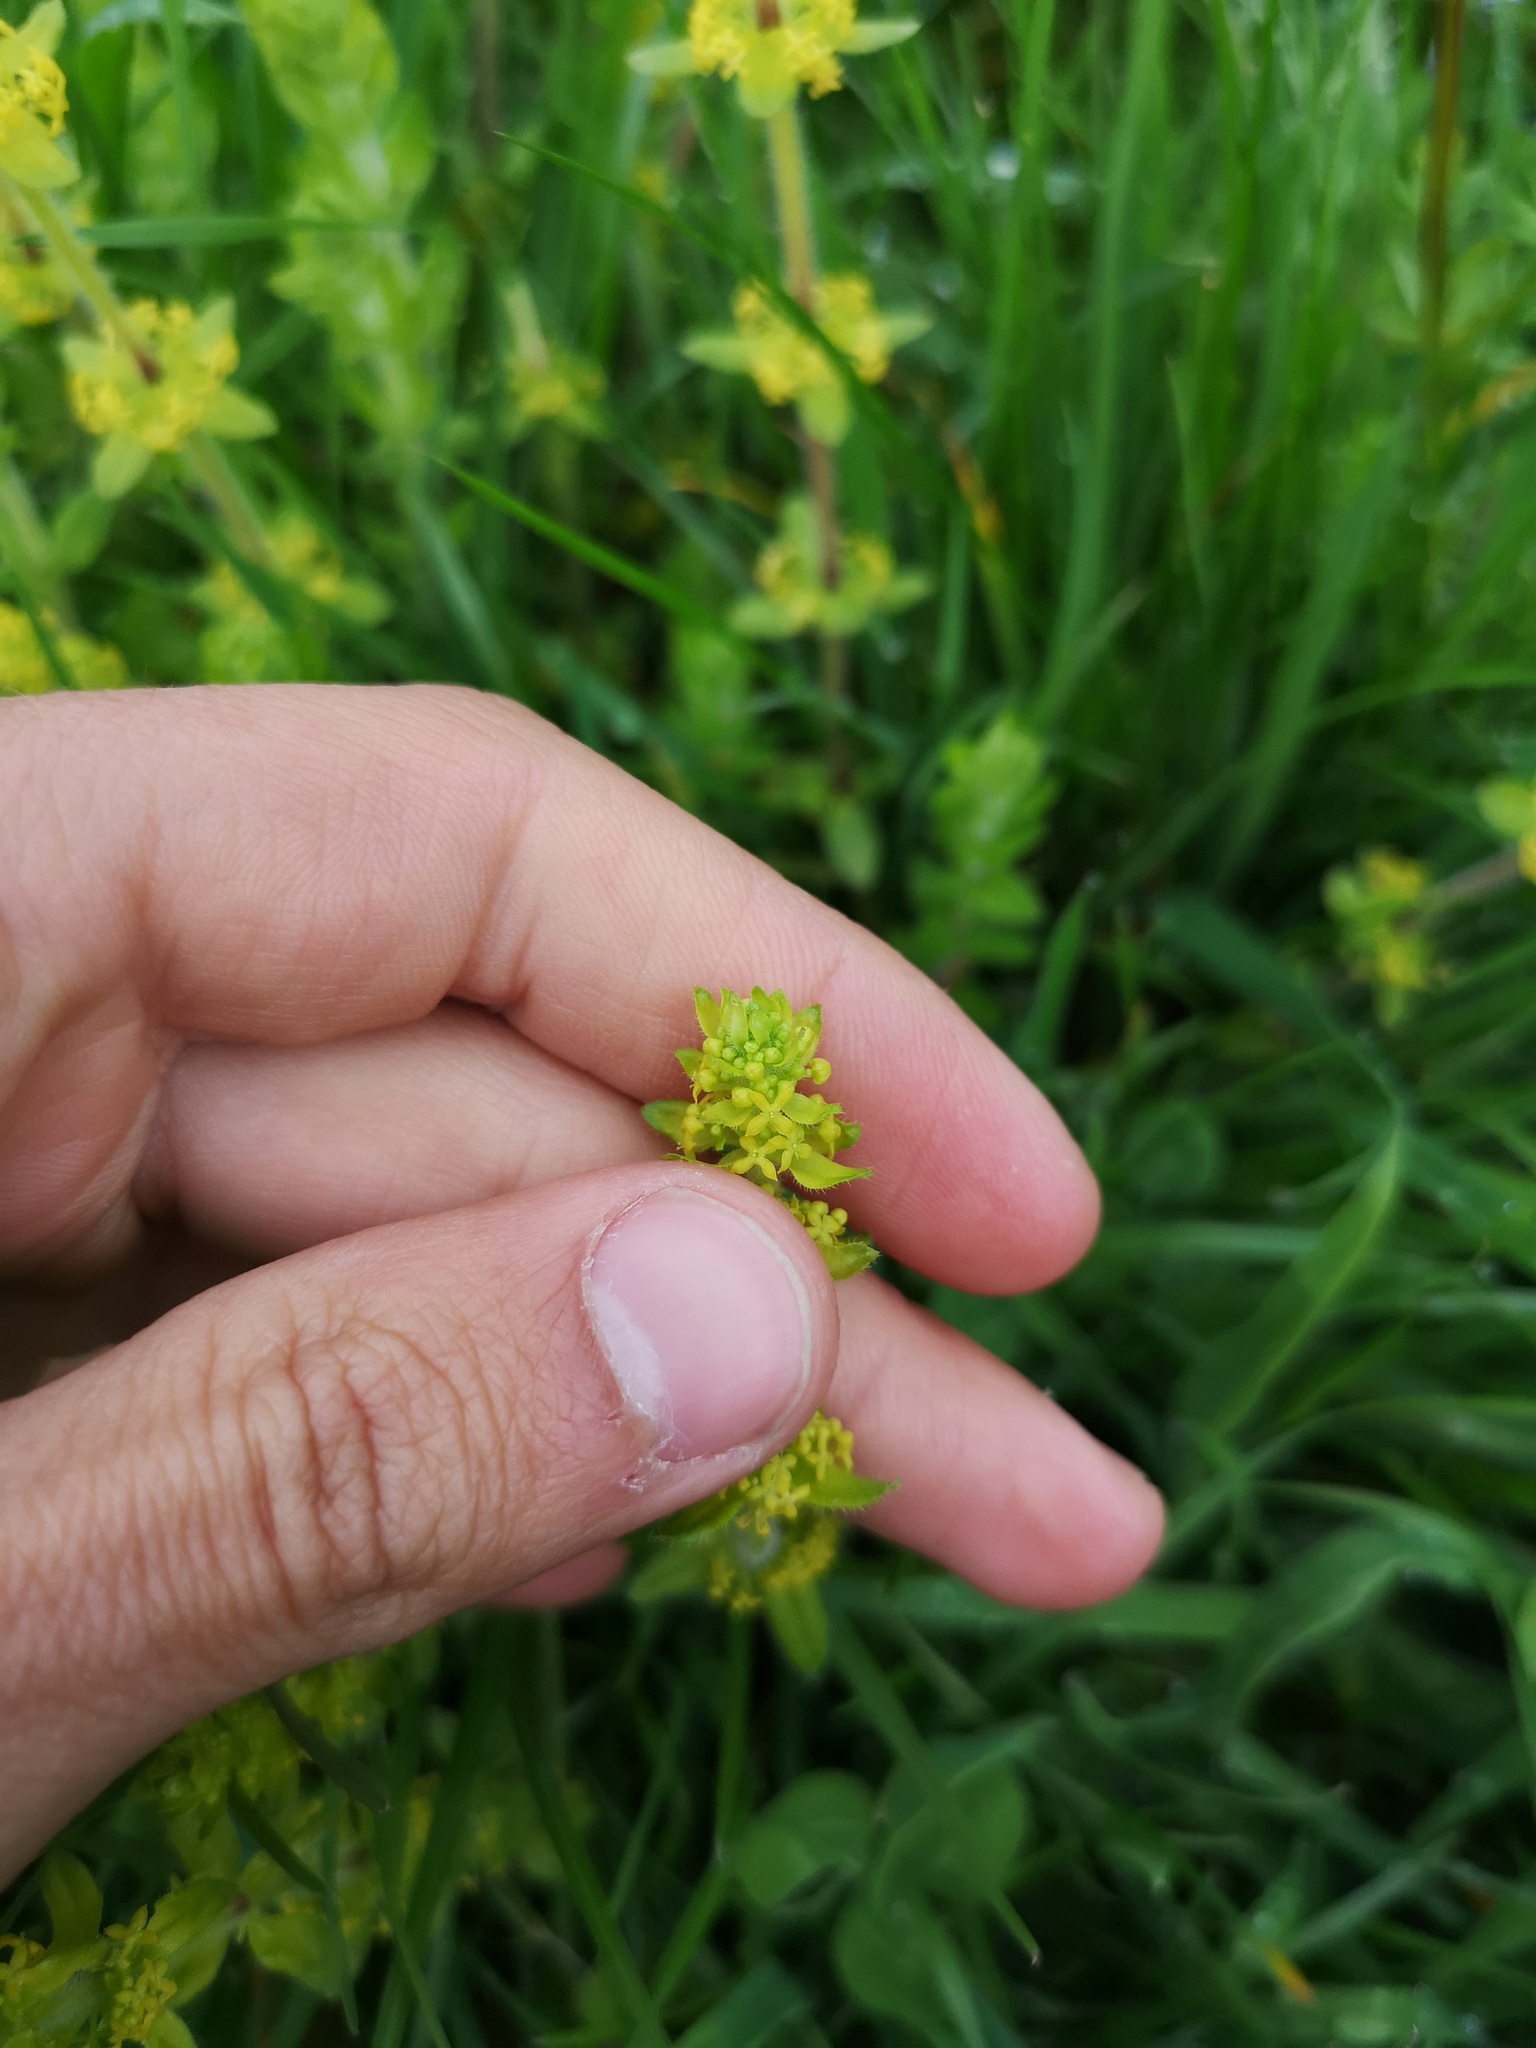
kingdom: Plantae
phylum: Tracheophyta
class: Magnoliopsida
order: Gentianales
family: Rubiaceae
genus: Cruciata
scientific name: Cruciata laevipes
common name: Crosswort
